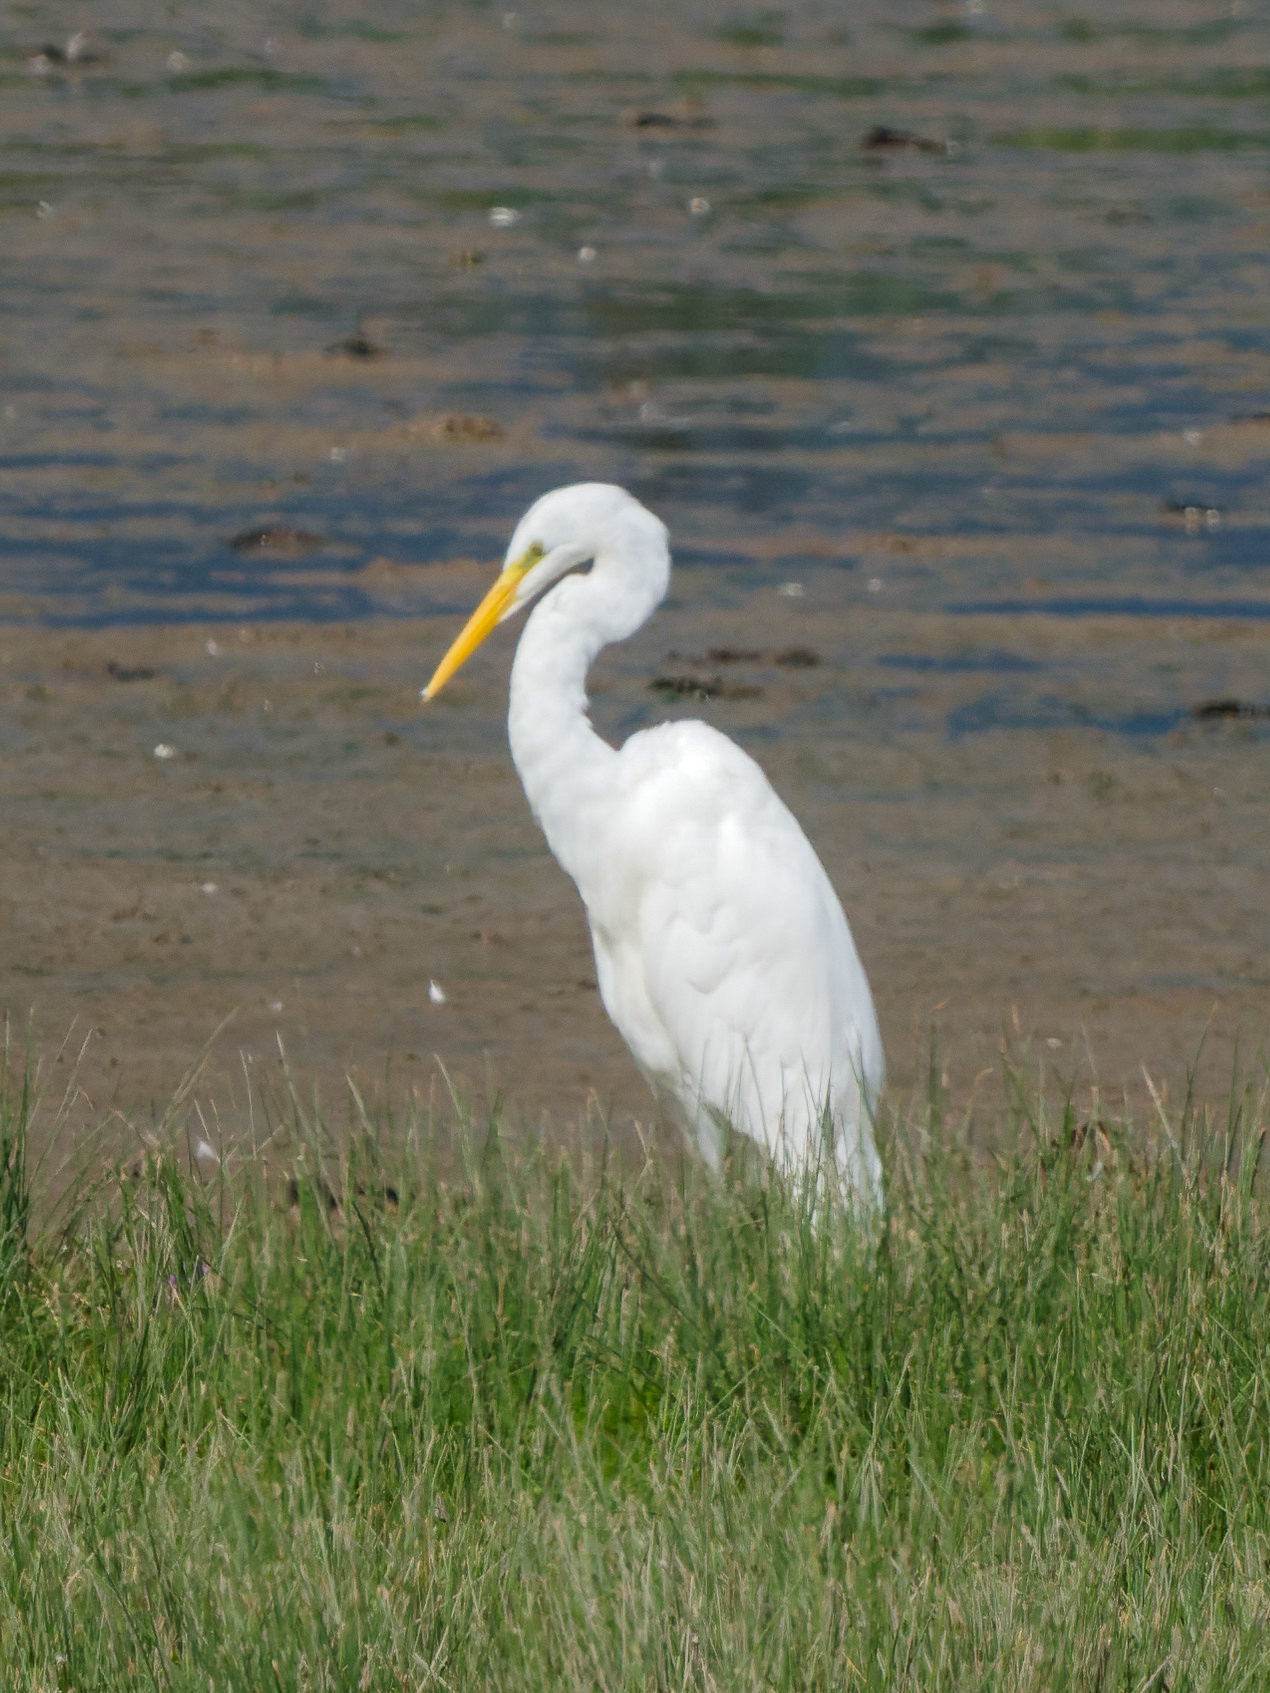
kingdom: Animalia
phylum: Chordata
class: Aves
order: Pelecaniformes
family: Ardeidae
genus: Ardea
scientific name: Ardea alba
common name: Great egret
